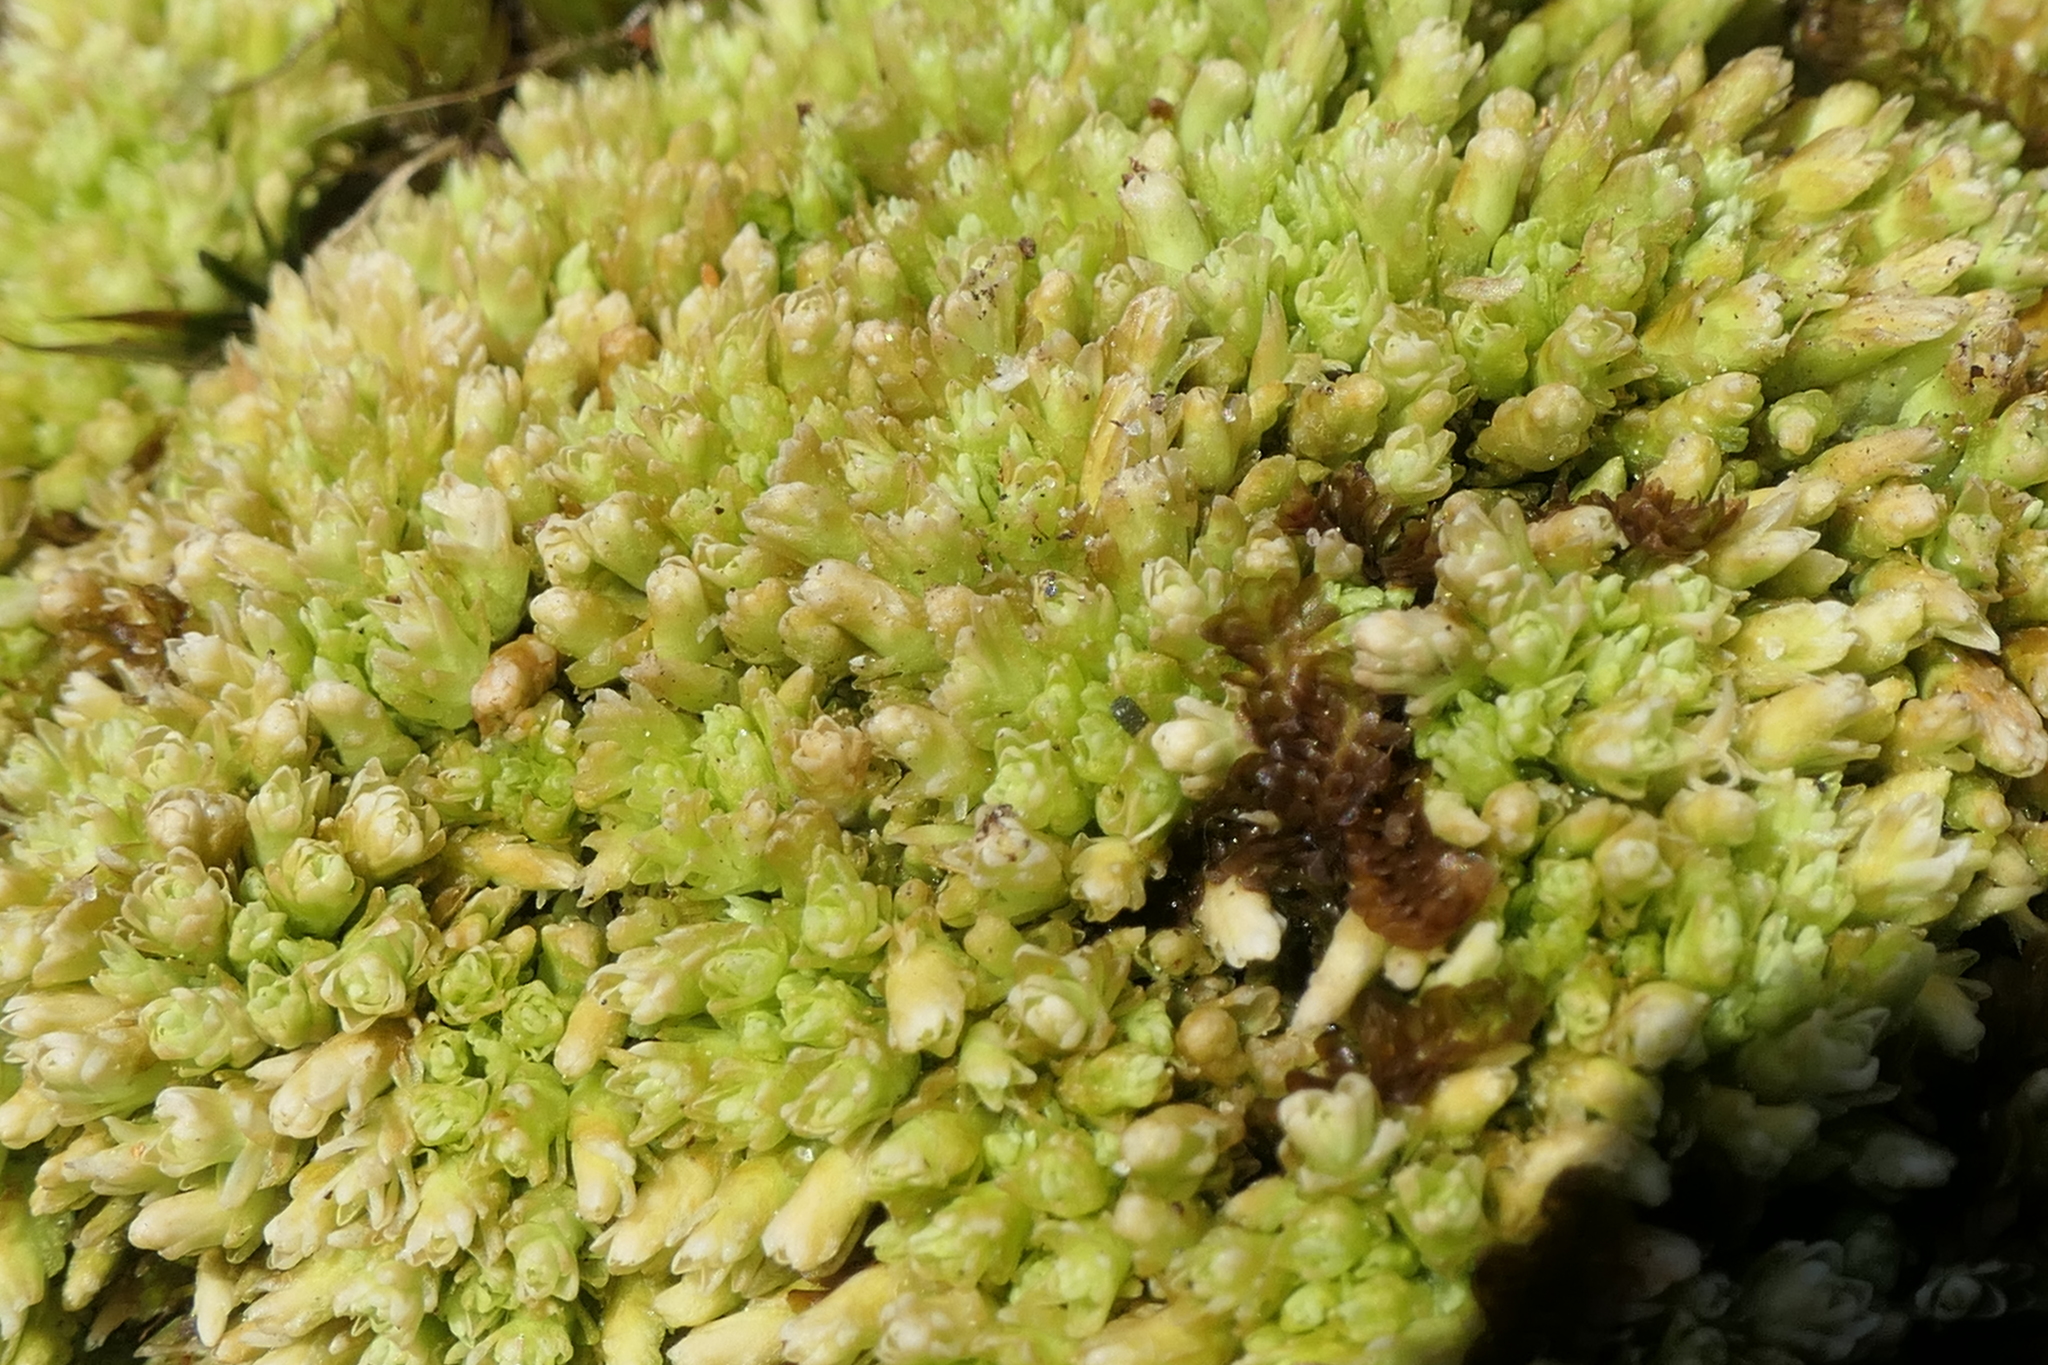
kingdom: Plantae
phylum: Bryophyta
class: Sphagnopsida
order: Sphagnales
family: Sphagnaceae
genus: Sphagnum
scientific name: Sphagnum compactum
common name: Compact peat moss
